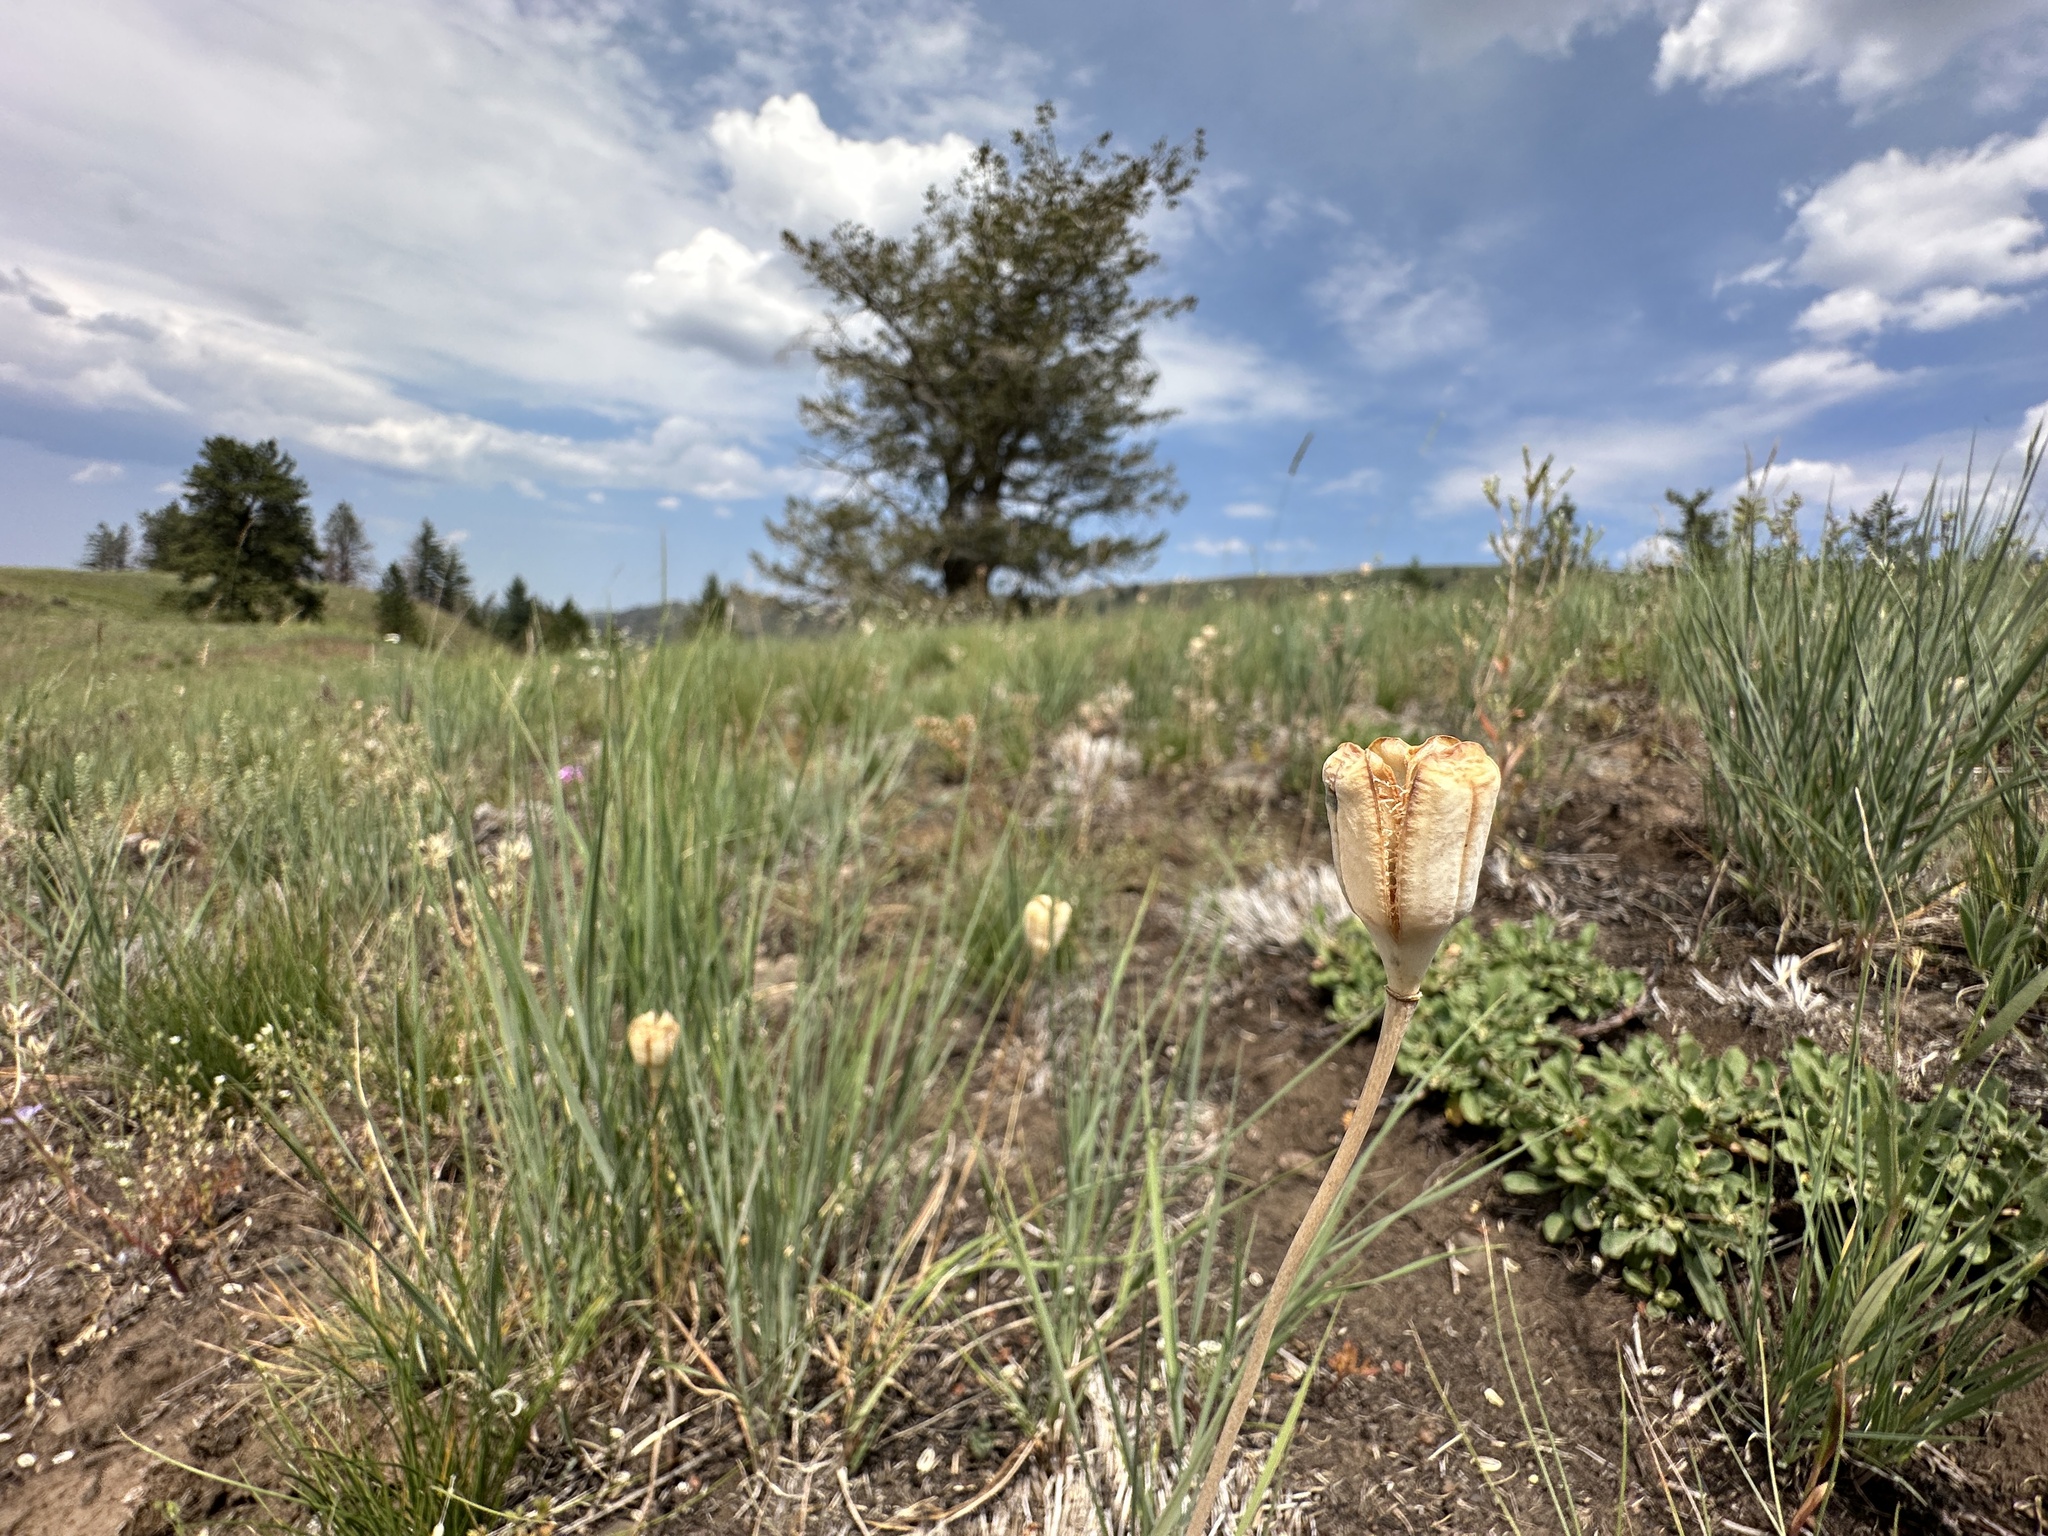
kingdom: Plantae
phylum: Tracheophyta
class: Liliopsida
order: Liliales
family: Liliaceae
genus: Fritillaria
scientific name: Fritillaria pudica
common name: Yellow fritillary
